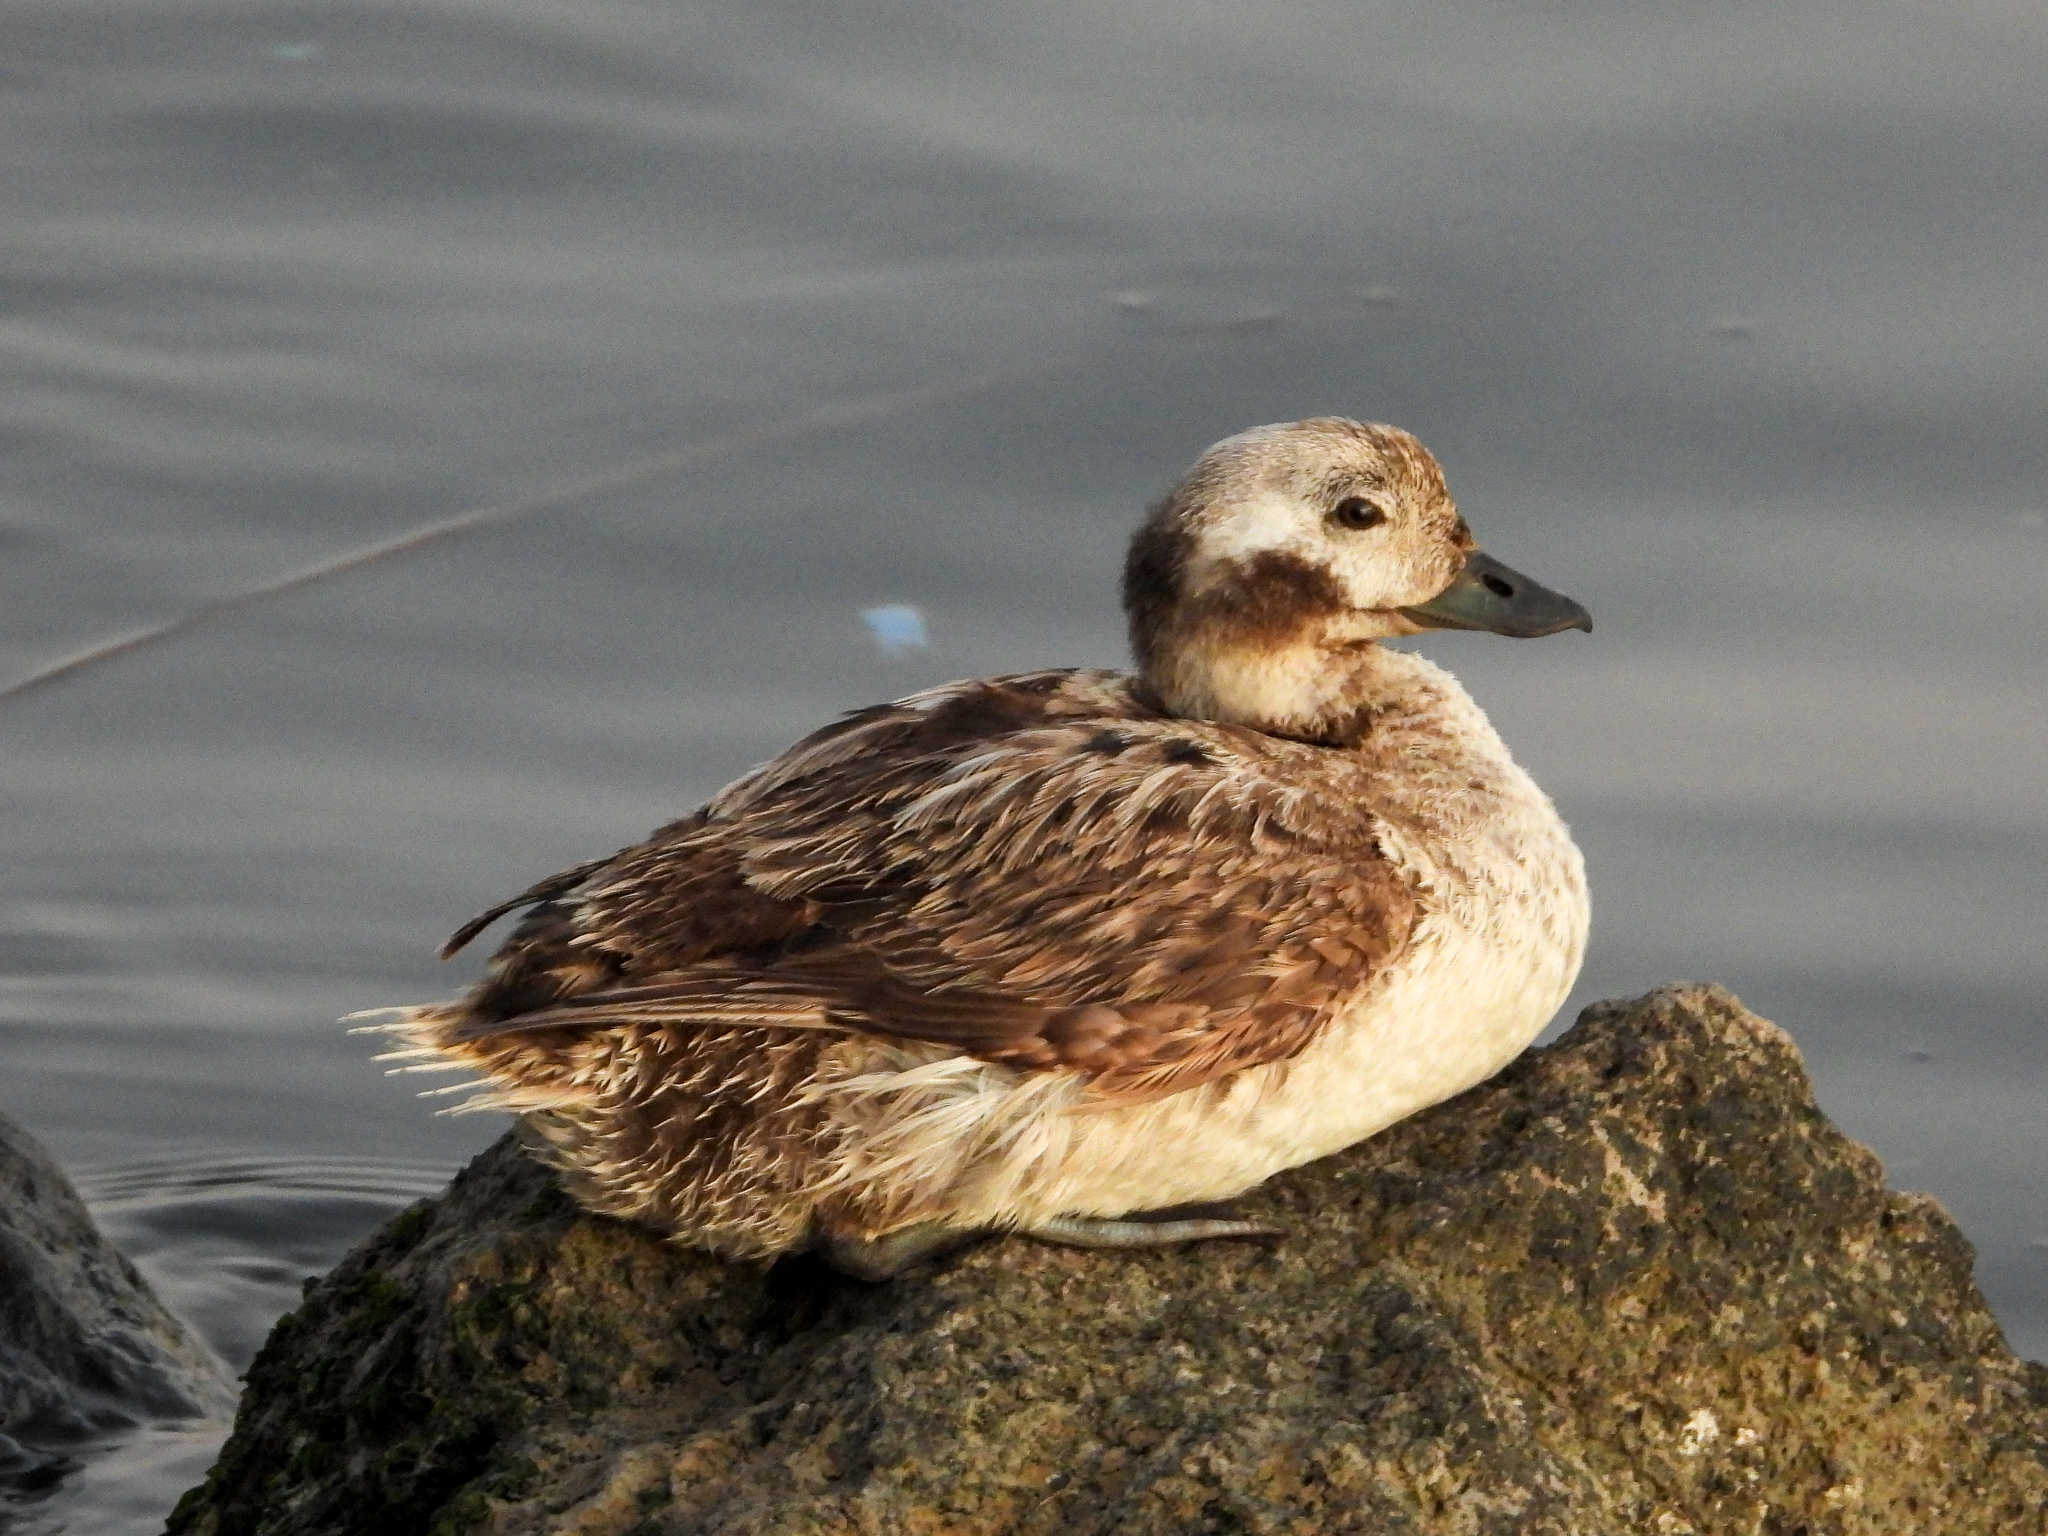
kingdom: Animalia
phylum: Chordata
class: Aves
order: Anseriformes
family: Anatidae
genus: Clangula
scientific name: Clangula hyemalis
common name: Long-tailed duck
